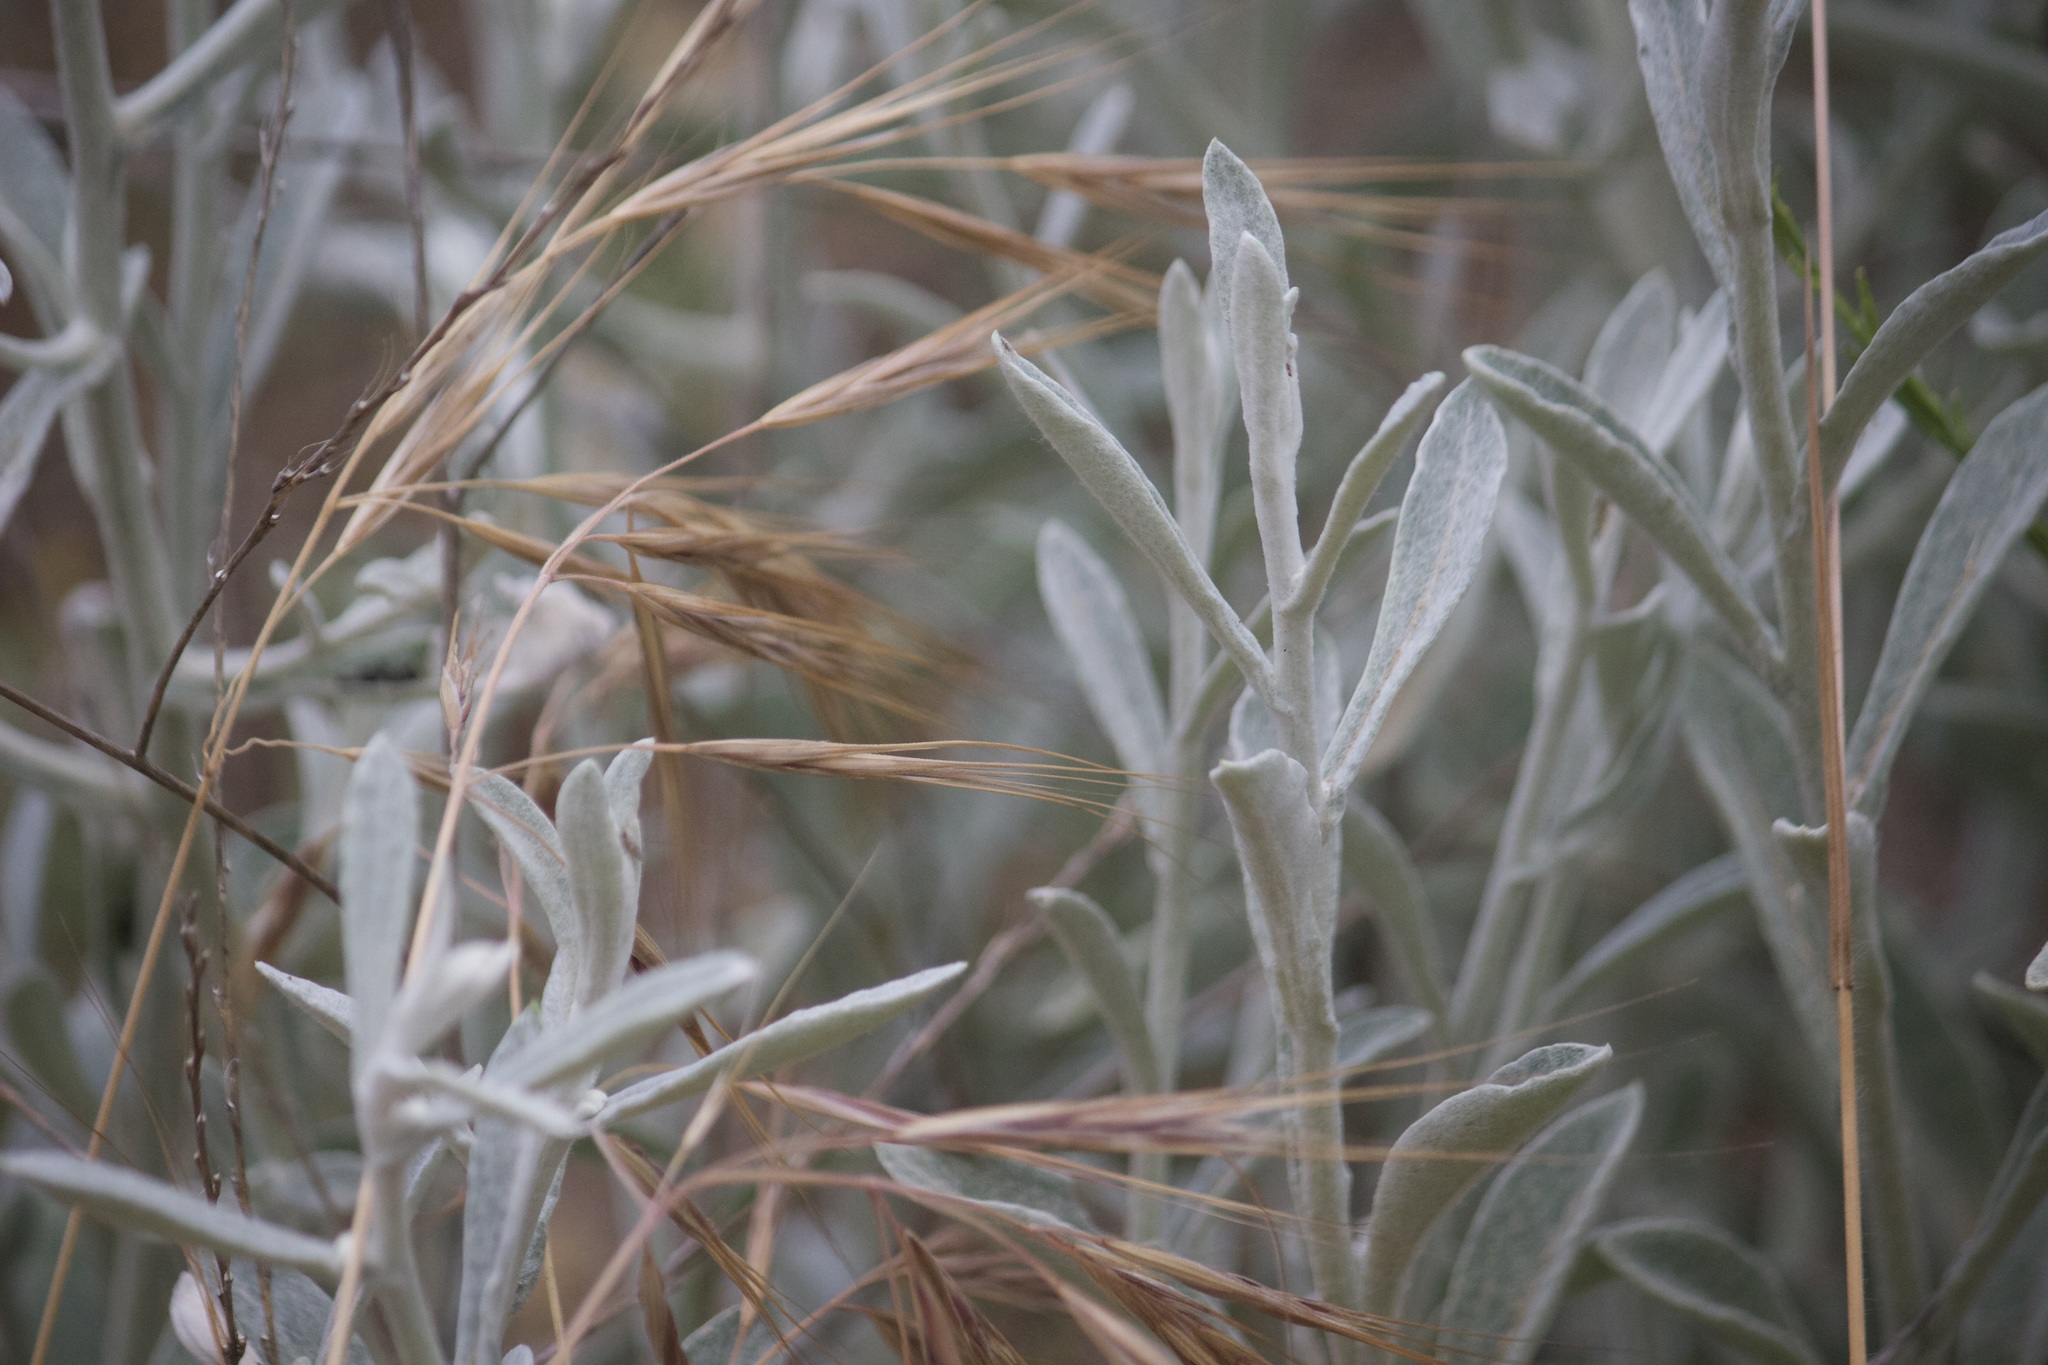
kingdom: Plantae
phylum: Tracheophyta
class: Magnoliopsida
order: Asterales
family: Asteraceae
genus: Pseudognaphalium
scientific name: Pseudognaphalium microcephalum
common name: San diego rabbit-tobacco
